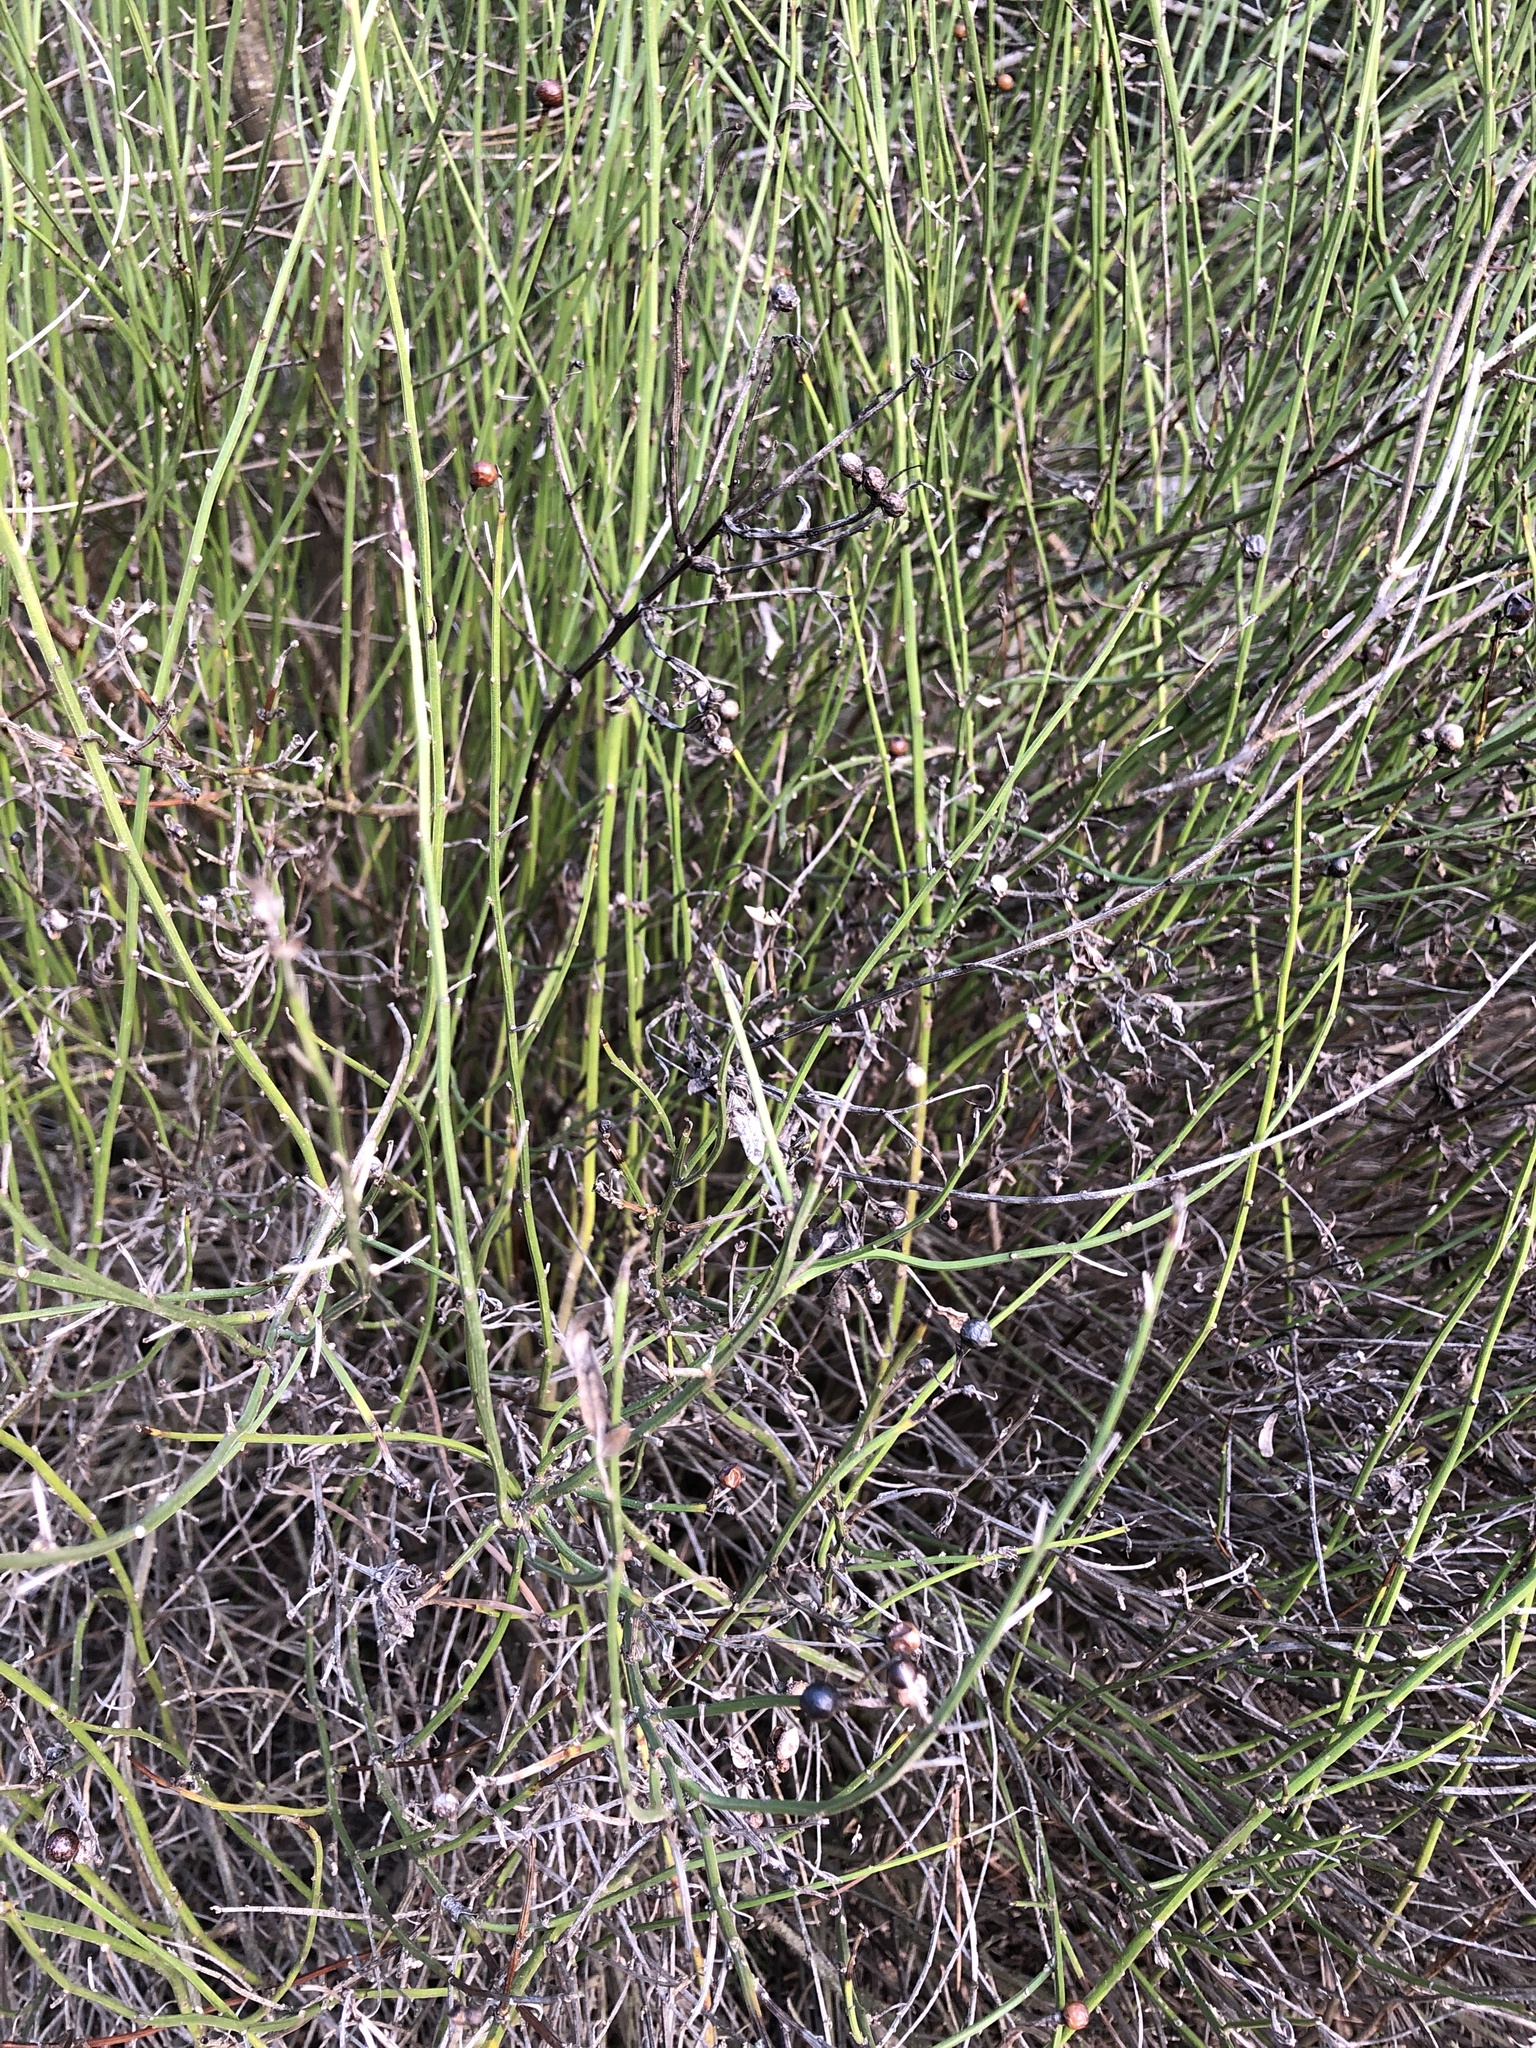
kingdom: Plantae
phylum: Tracheophyta
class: Magnoliopsida
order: Lamiales
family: Oleaceae
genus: Chrysojasminum
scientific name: Chrysojasminum fruticans
